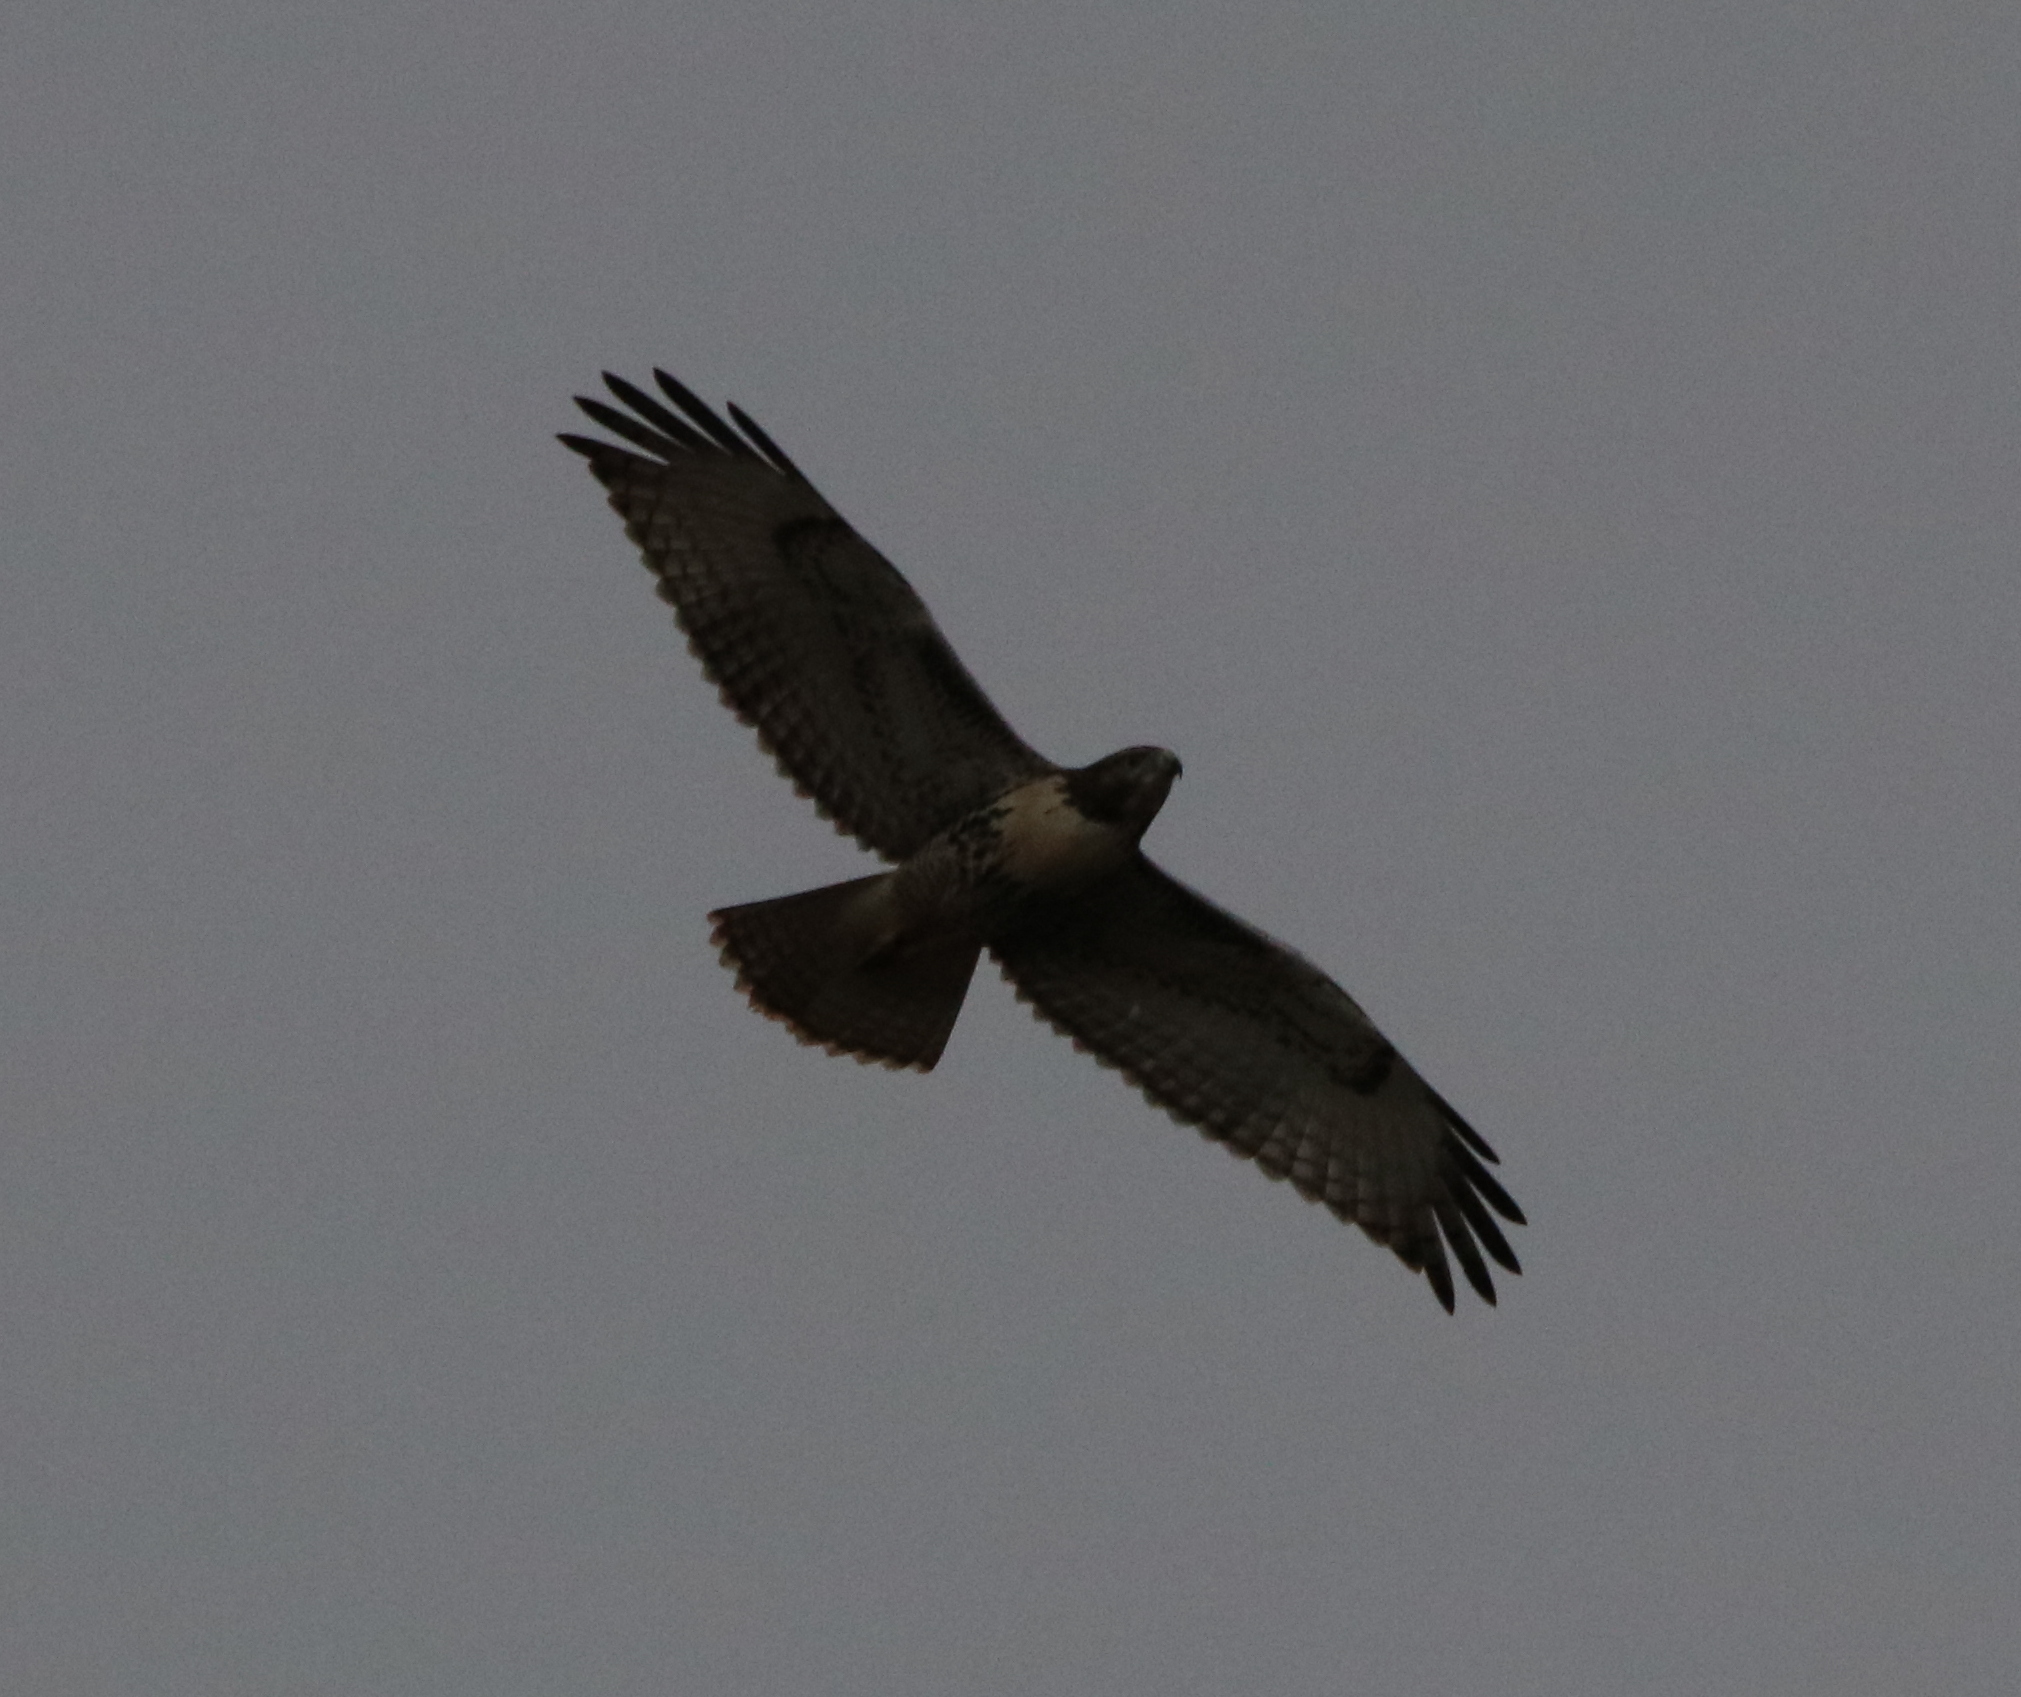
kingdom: Animalia
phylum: Chordata
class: Aves
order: Accipitriformes
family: Accipitridae
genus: Buteo
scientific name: Buteo jamaicensis
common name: Red-tailed hawk
